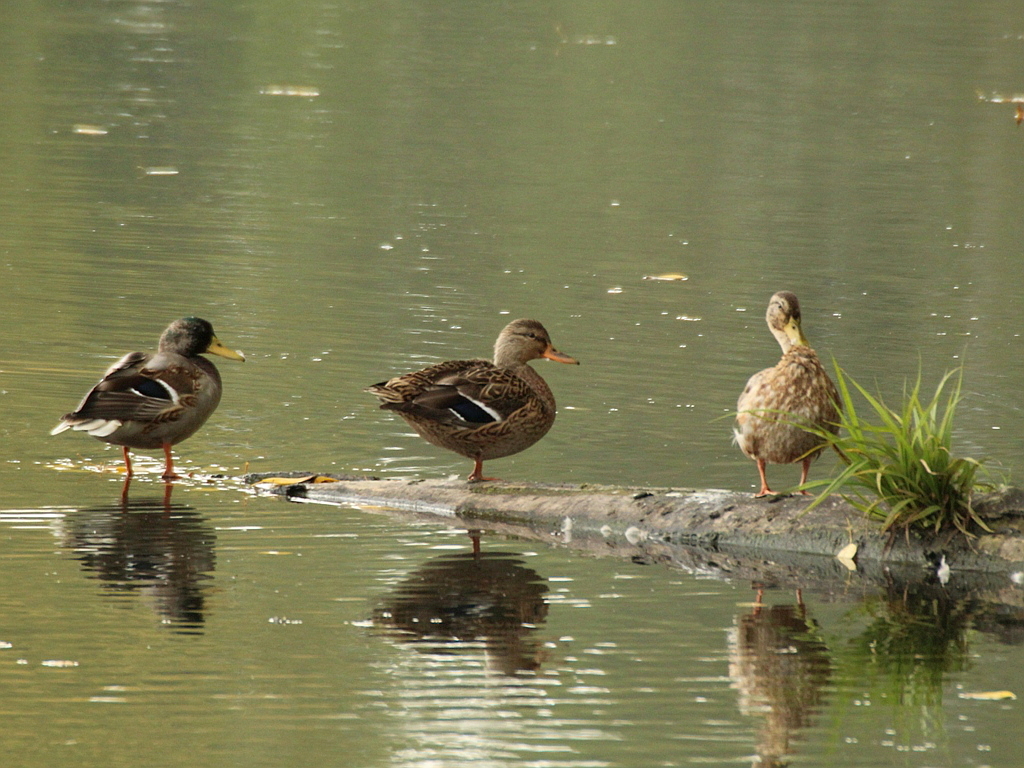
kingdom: Animalia
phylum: Chordata
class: Aves
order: Anseriformes
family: Anatidae
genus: Anas
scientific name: Anas platyrhynchos
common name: Mallard
